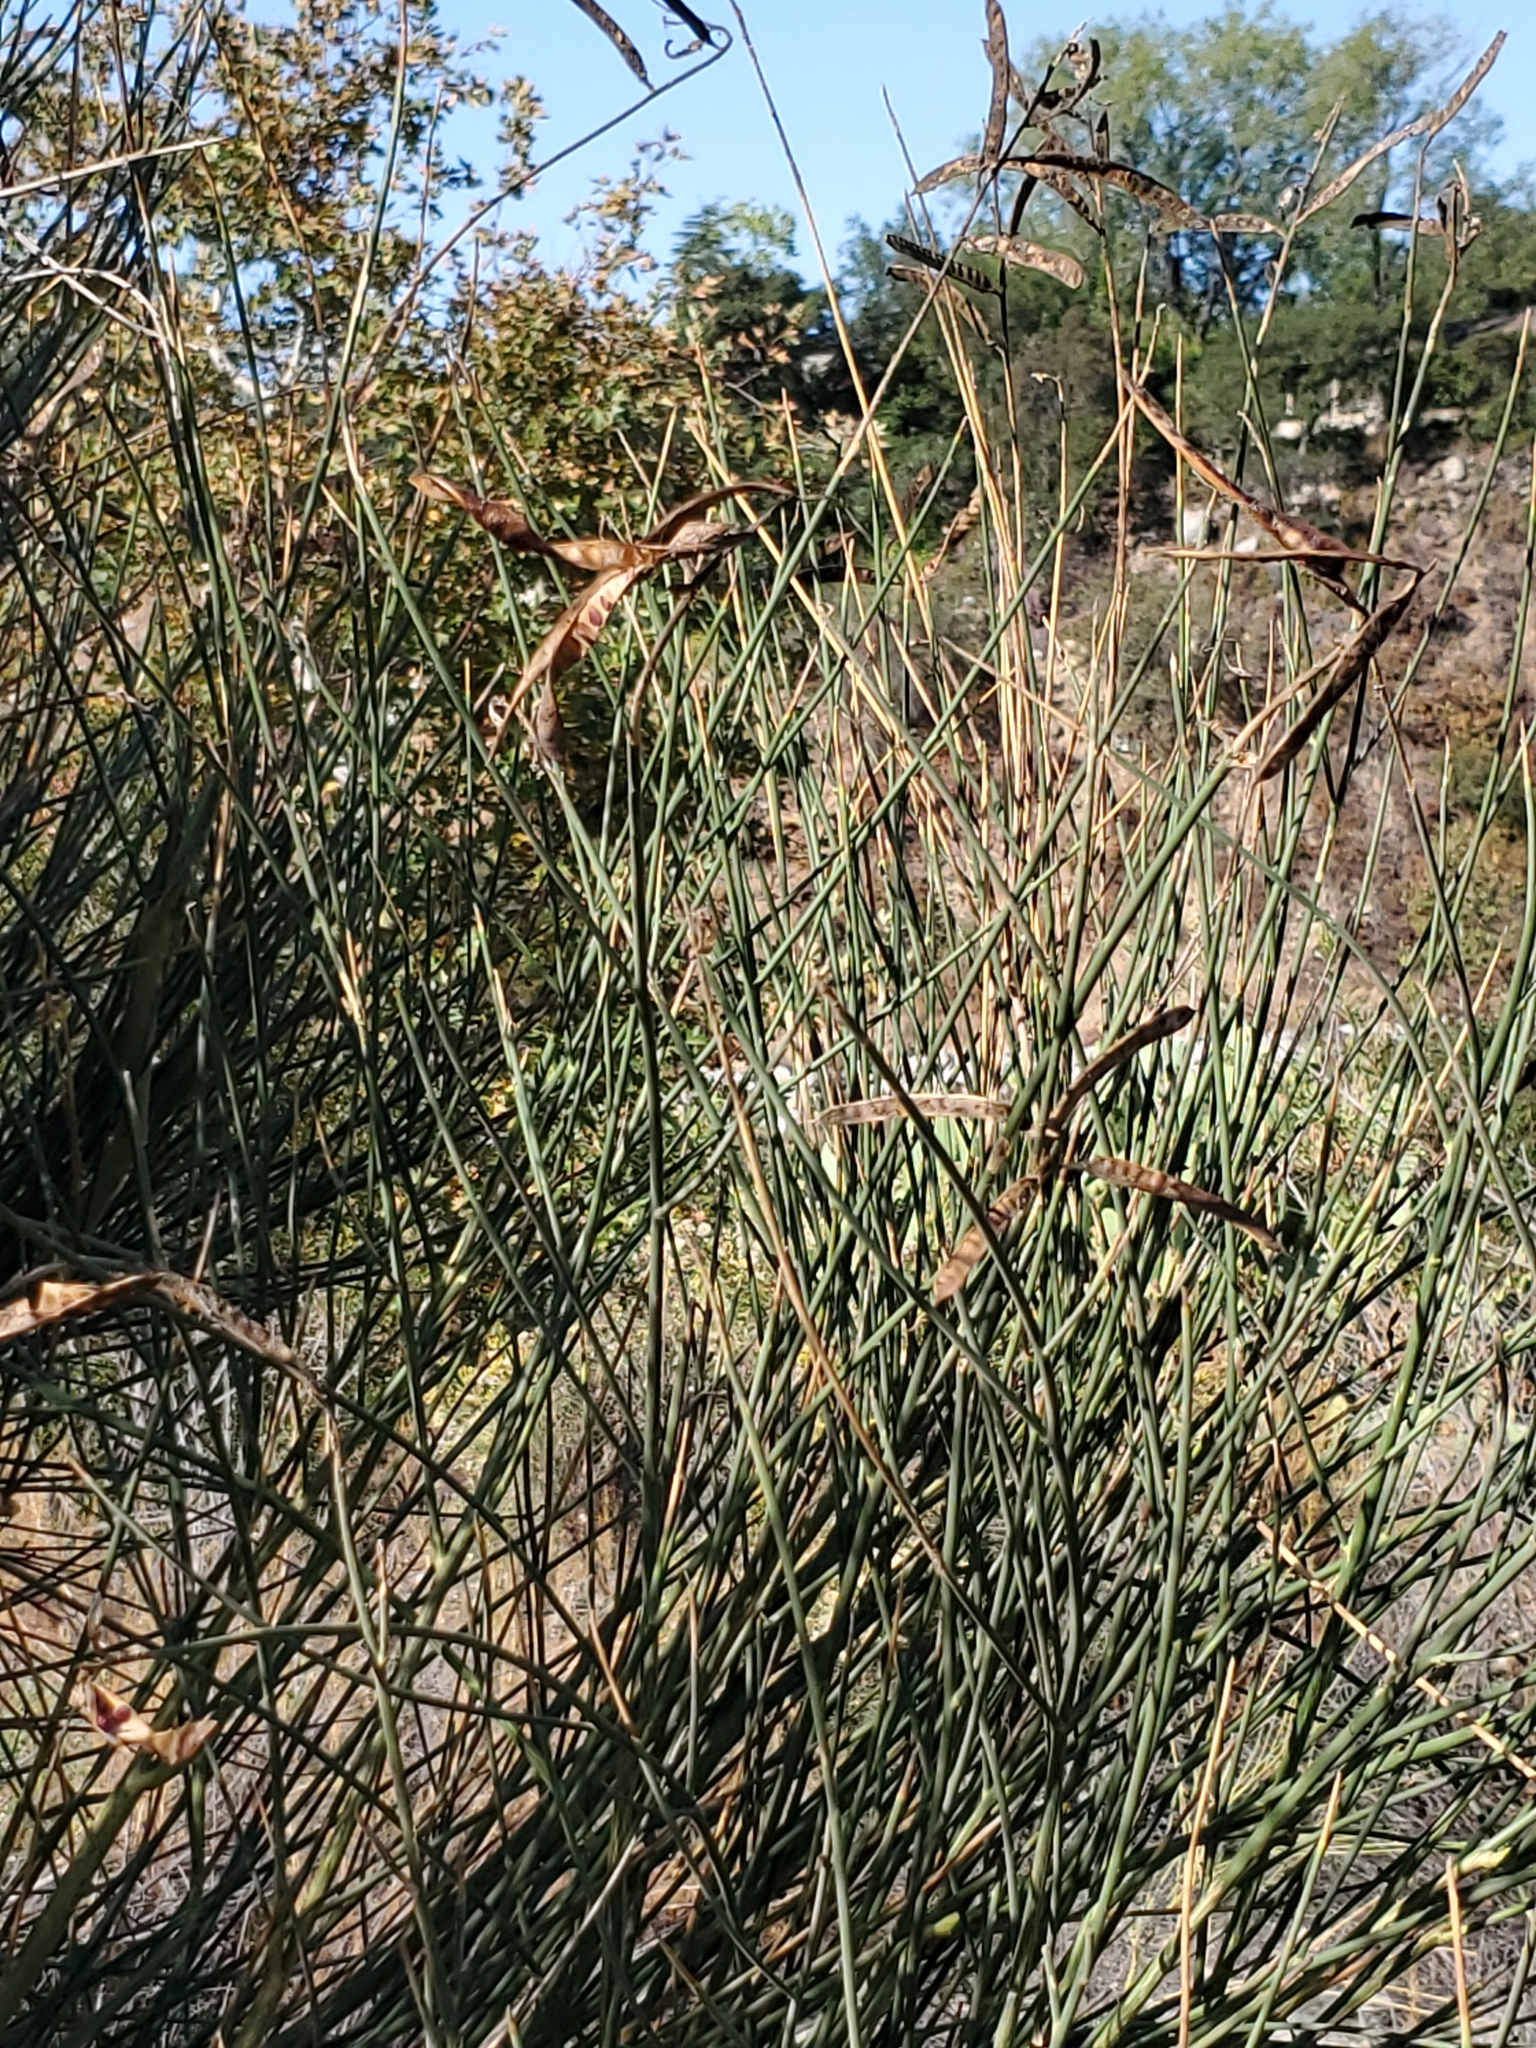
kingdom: Plantae
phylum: Tracheophyta
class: Magnoliopsida
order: Fabales
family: Fabaceae
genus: Spartium
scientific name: Spartium junceum
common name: Spanish broom
